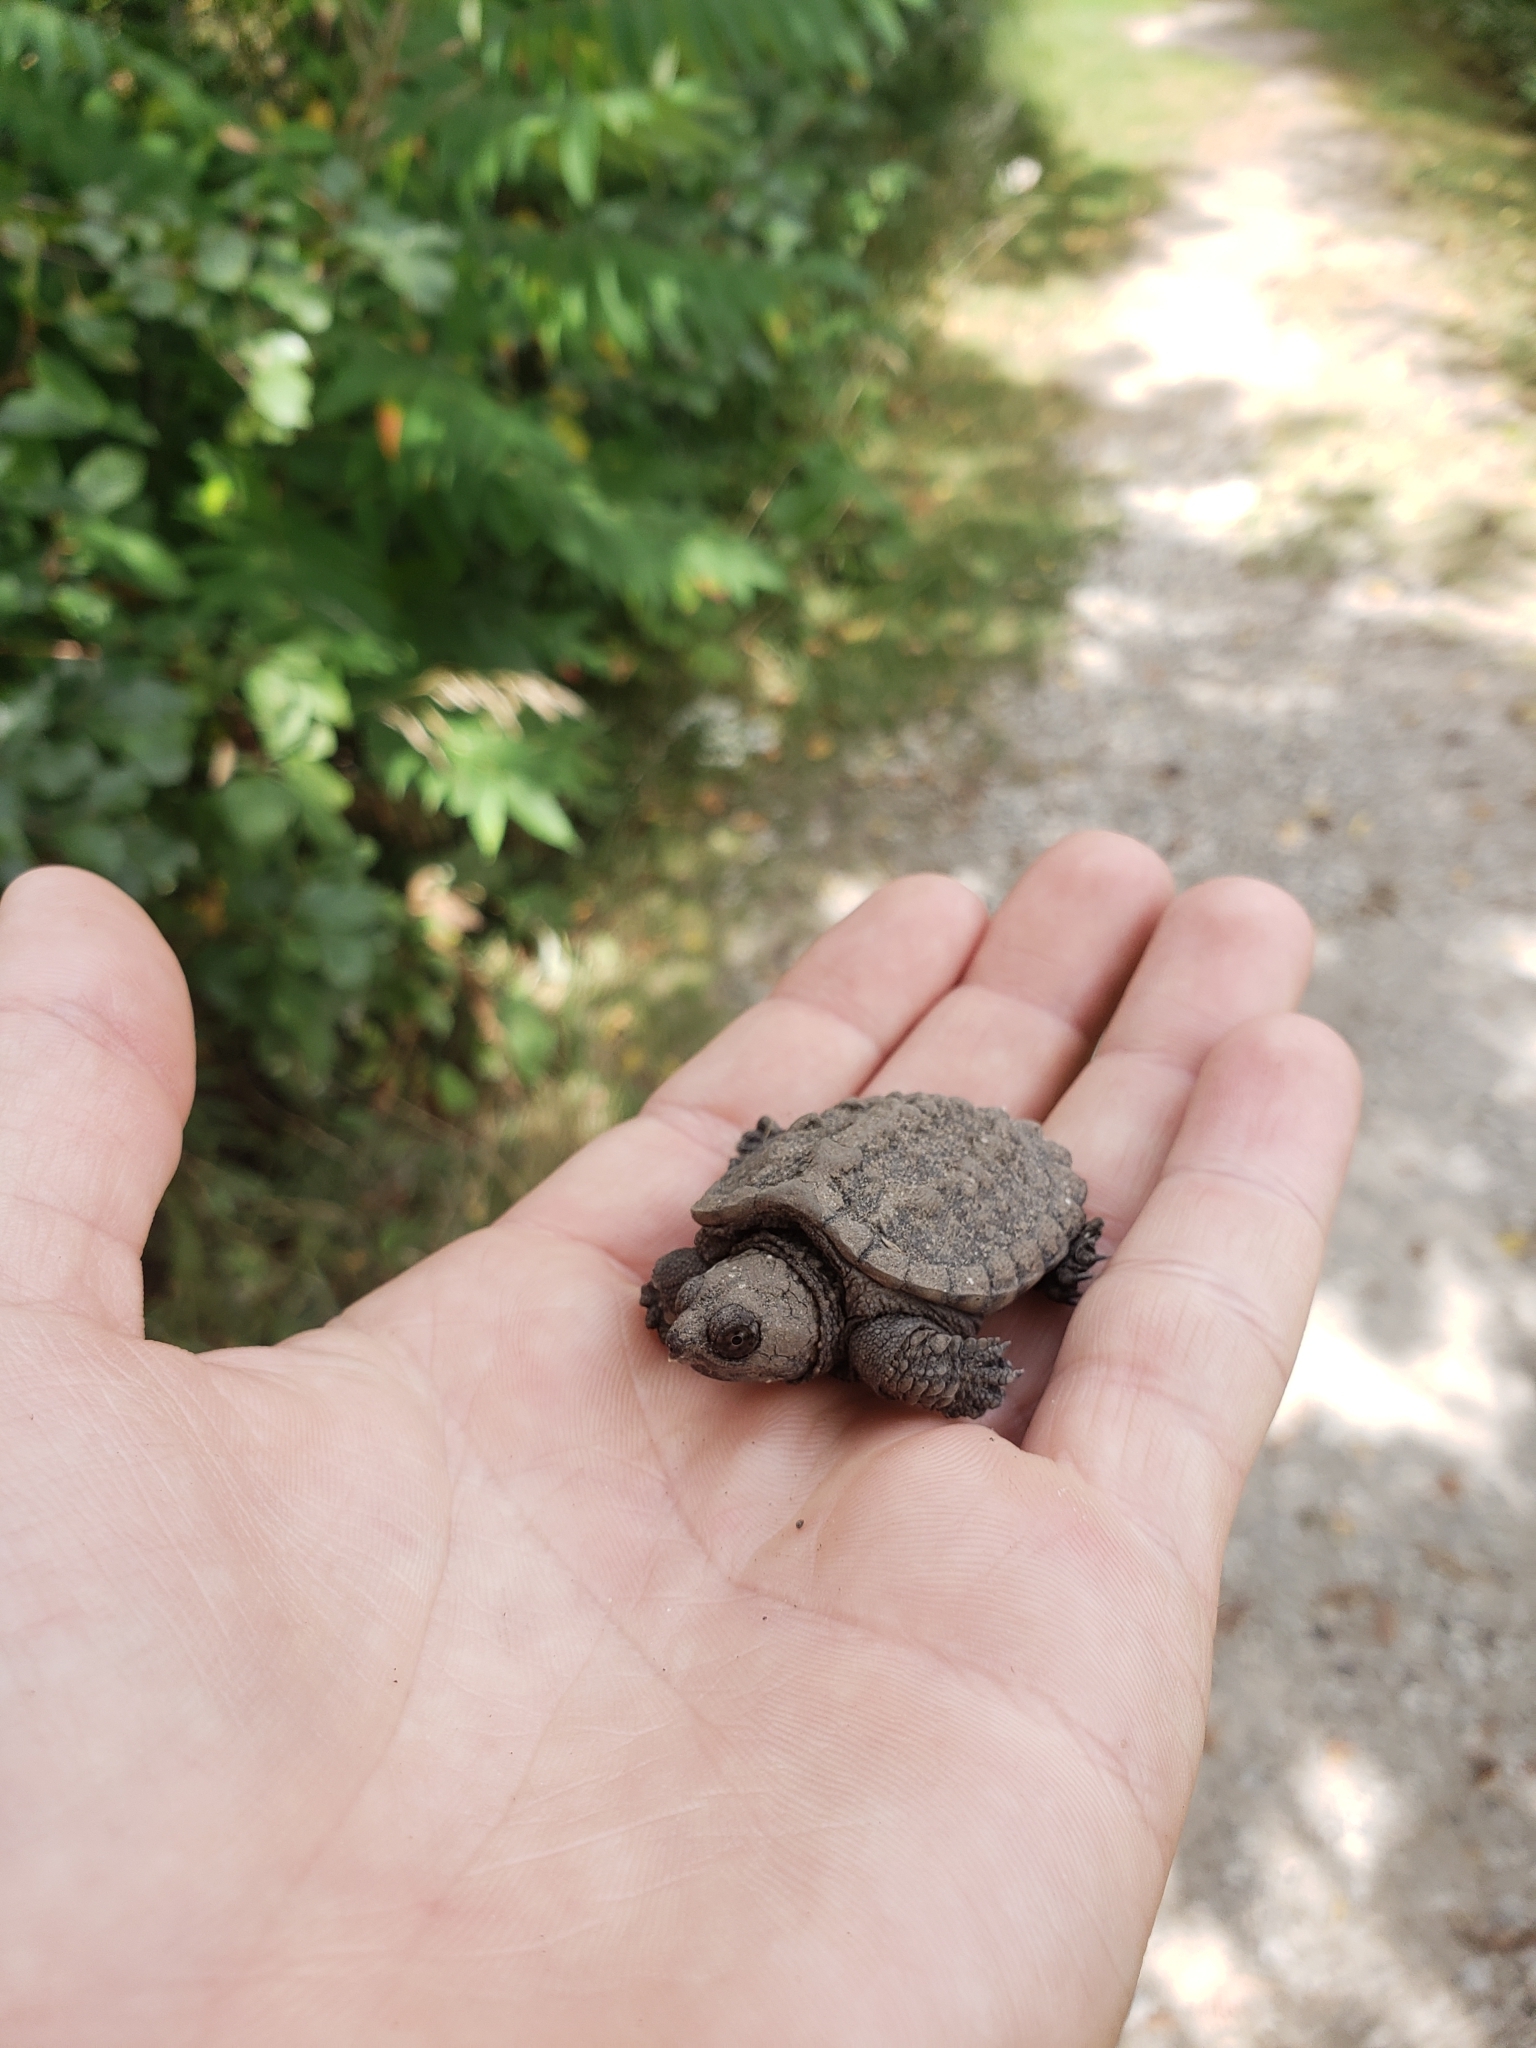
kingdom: Animalia
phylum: Chordata
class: Testudines
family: Chelydridae
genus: Chelydra
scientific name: Chelydra serpentina
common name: Common snapping turtle
